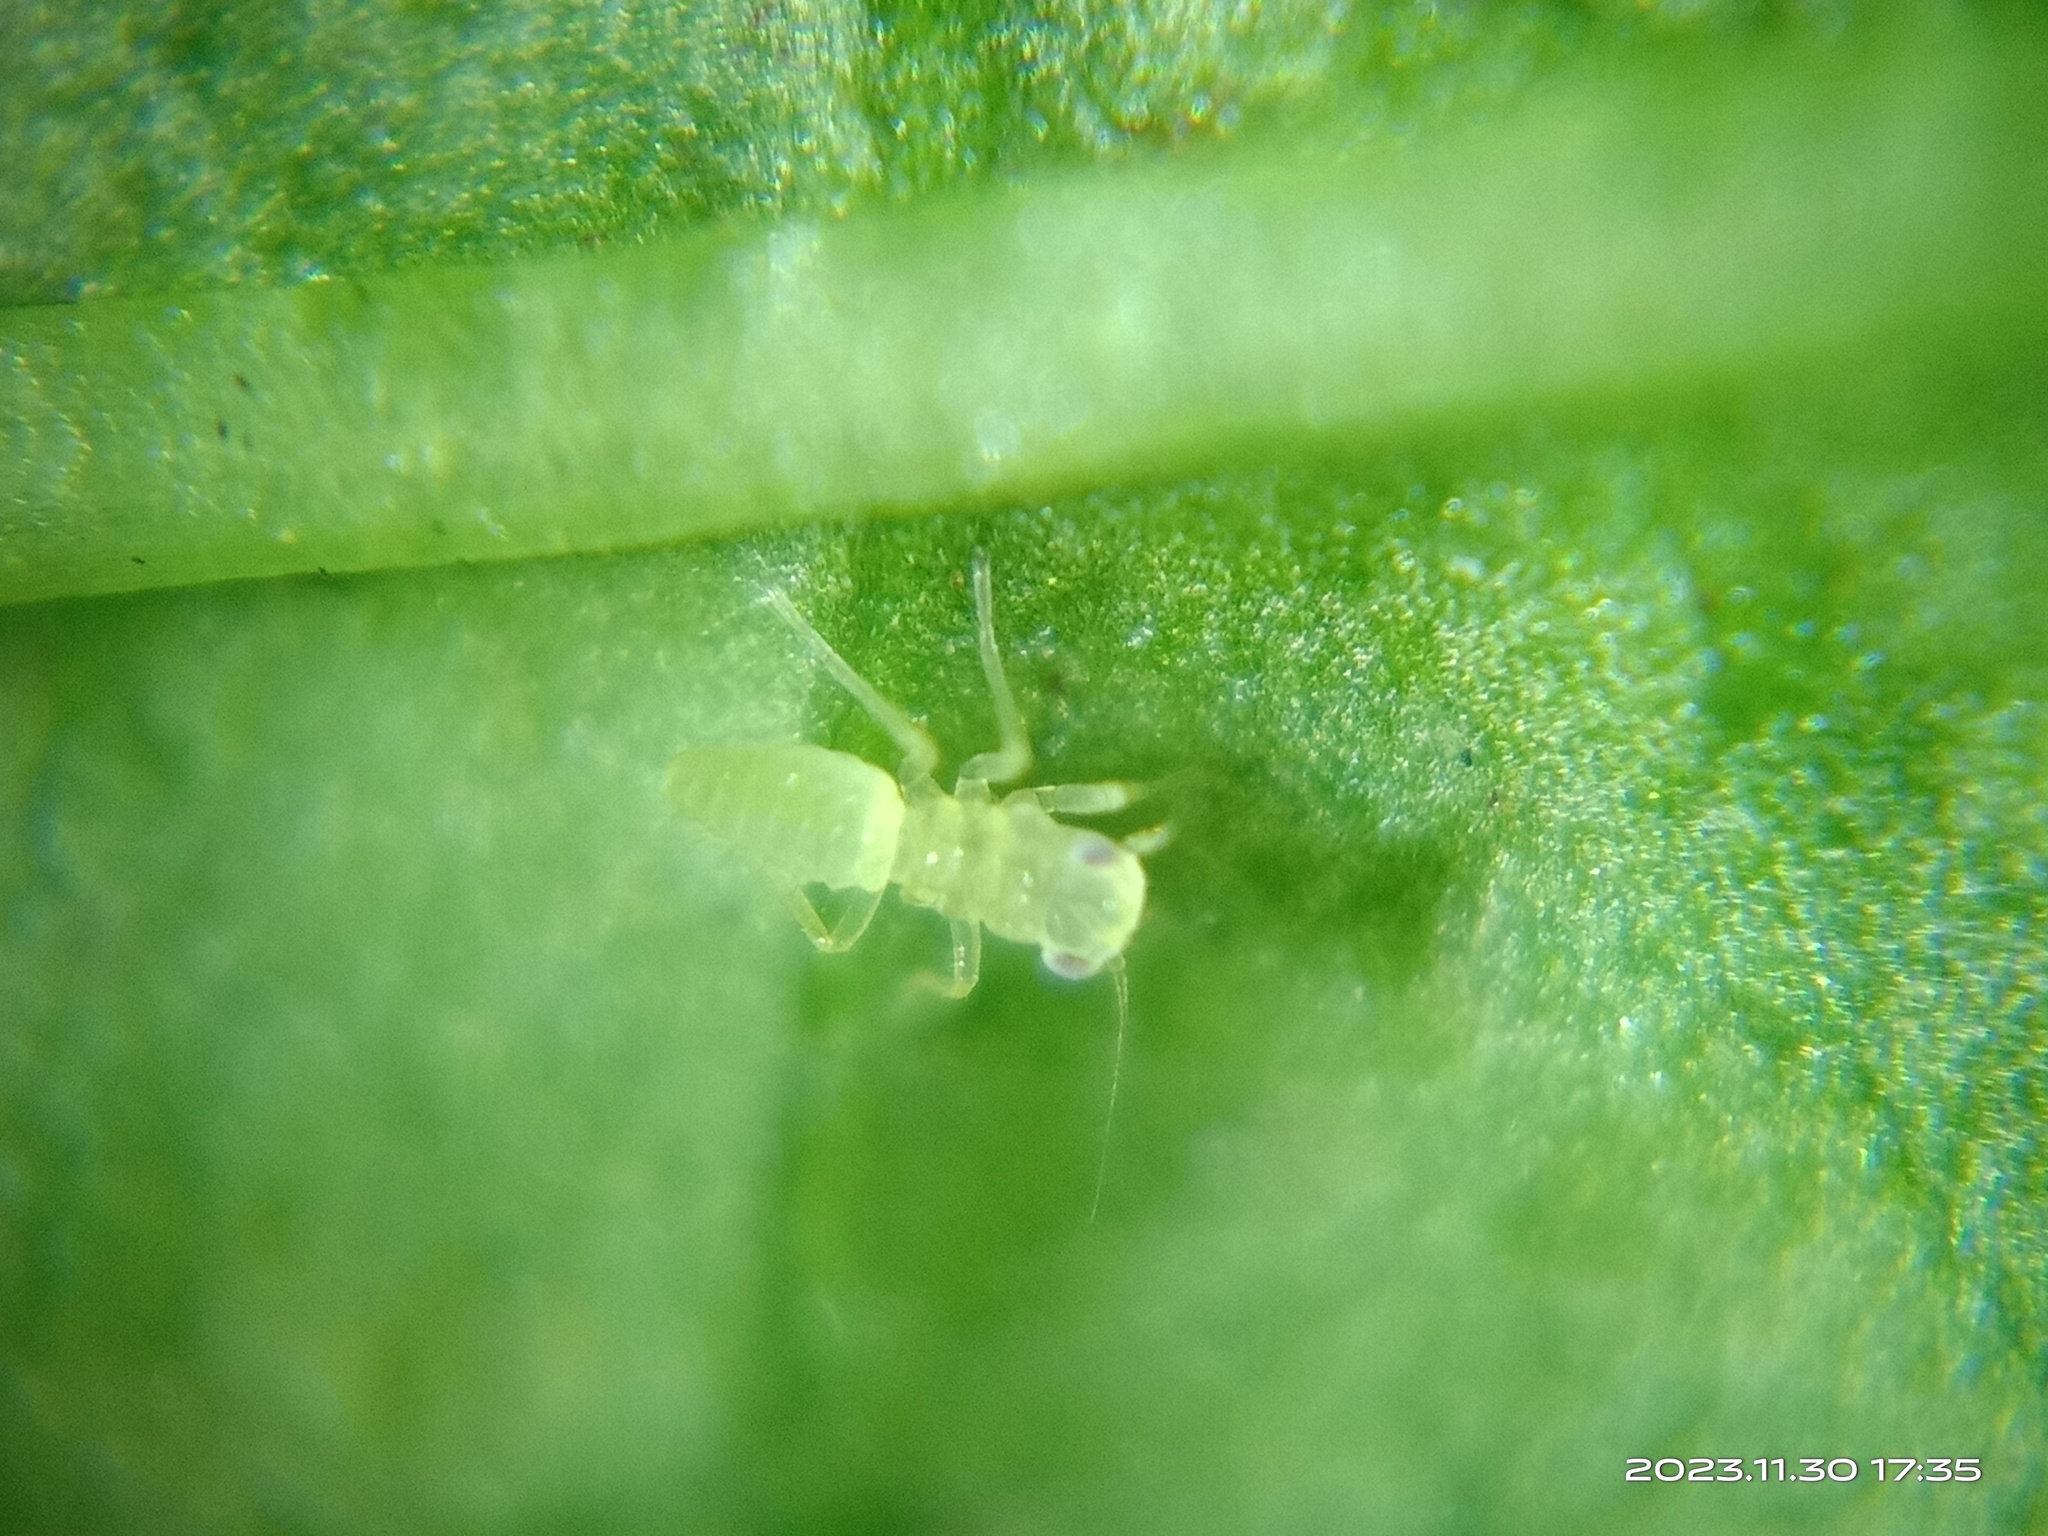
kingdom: Animalia
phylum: Arthropoda
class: Insecta
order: Hemiptera
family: Cicadellidae
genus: Amrasca
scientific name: Amrasca biguttula
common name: Indian cotton jassid
